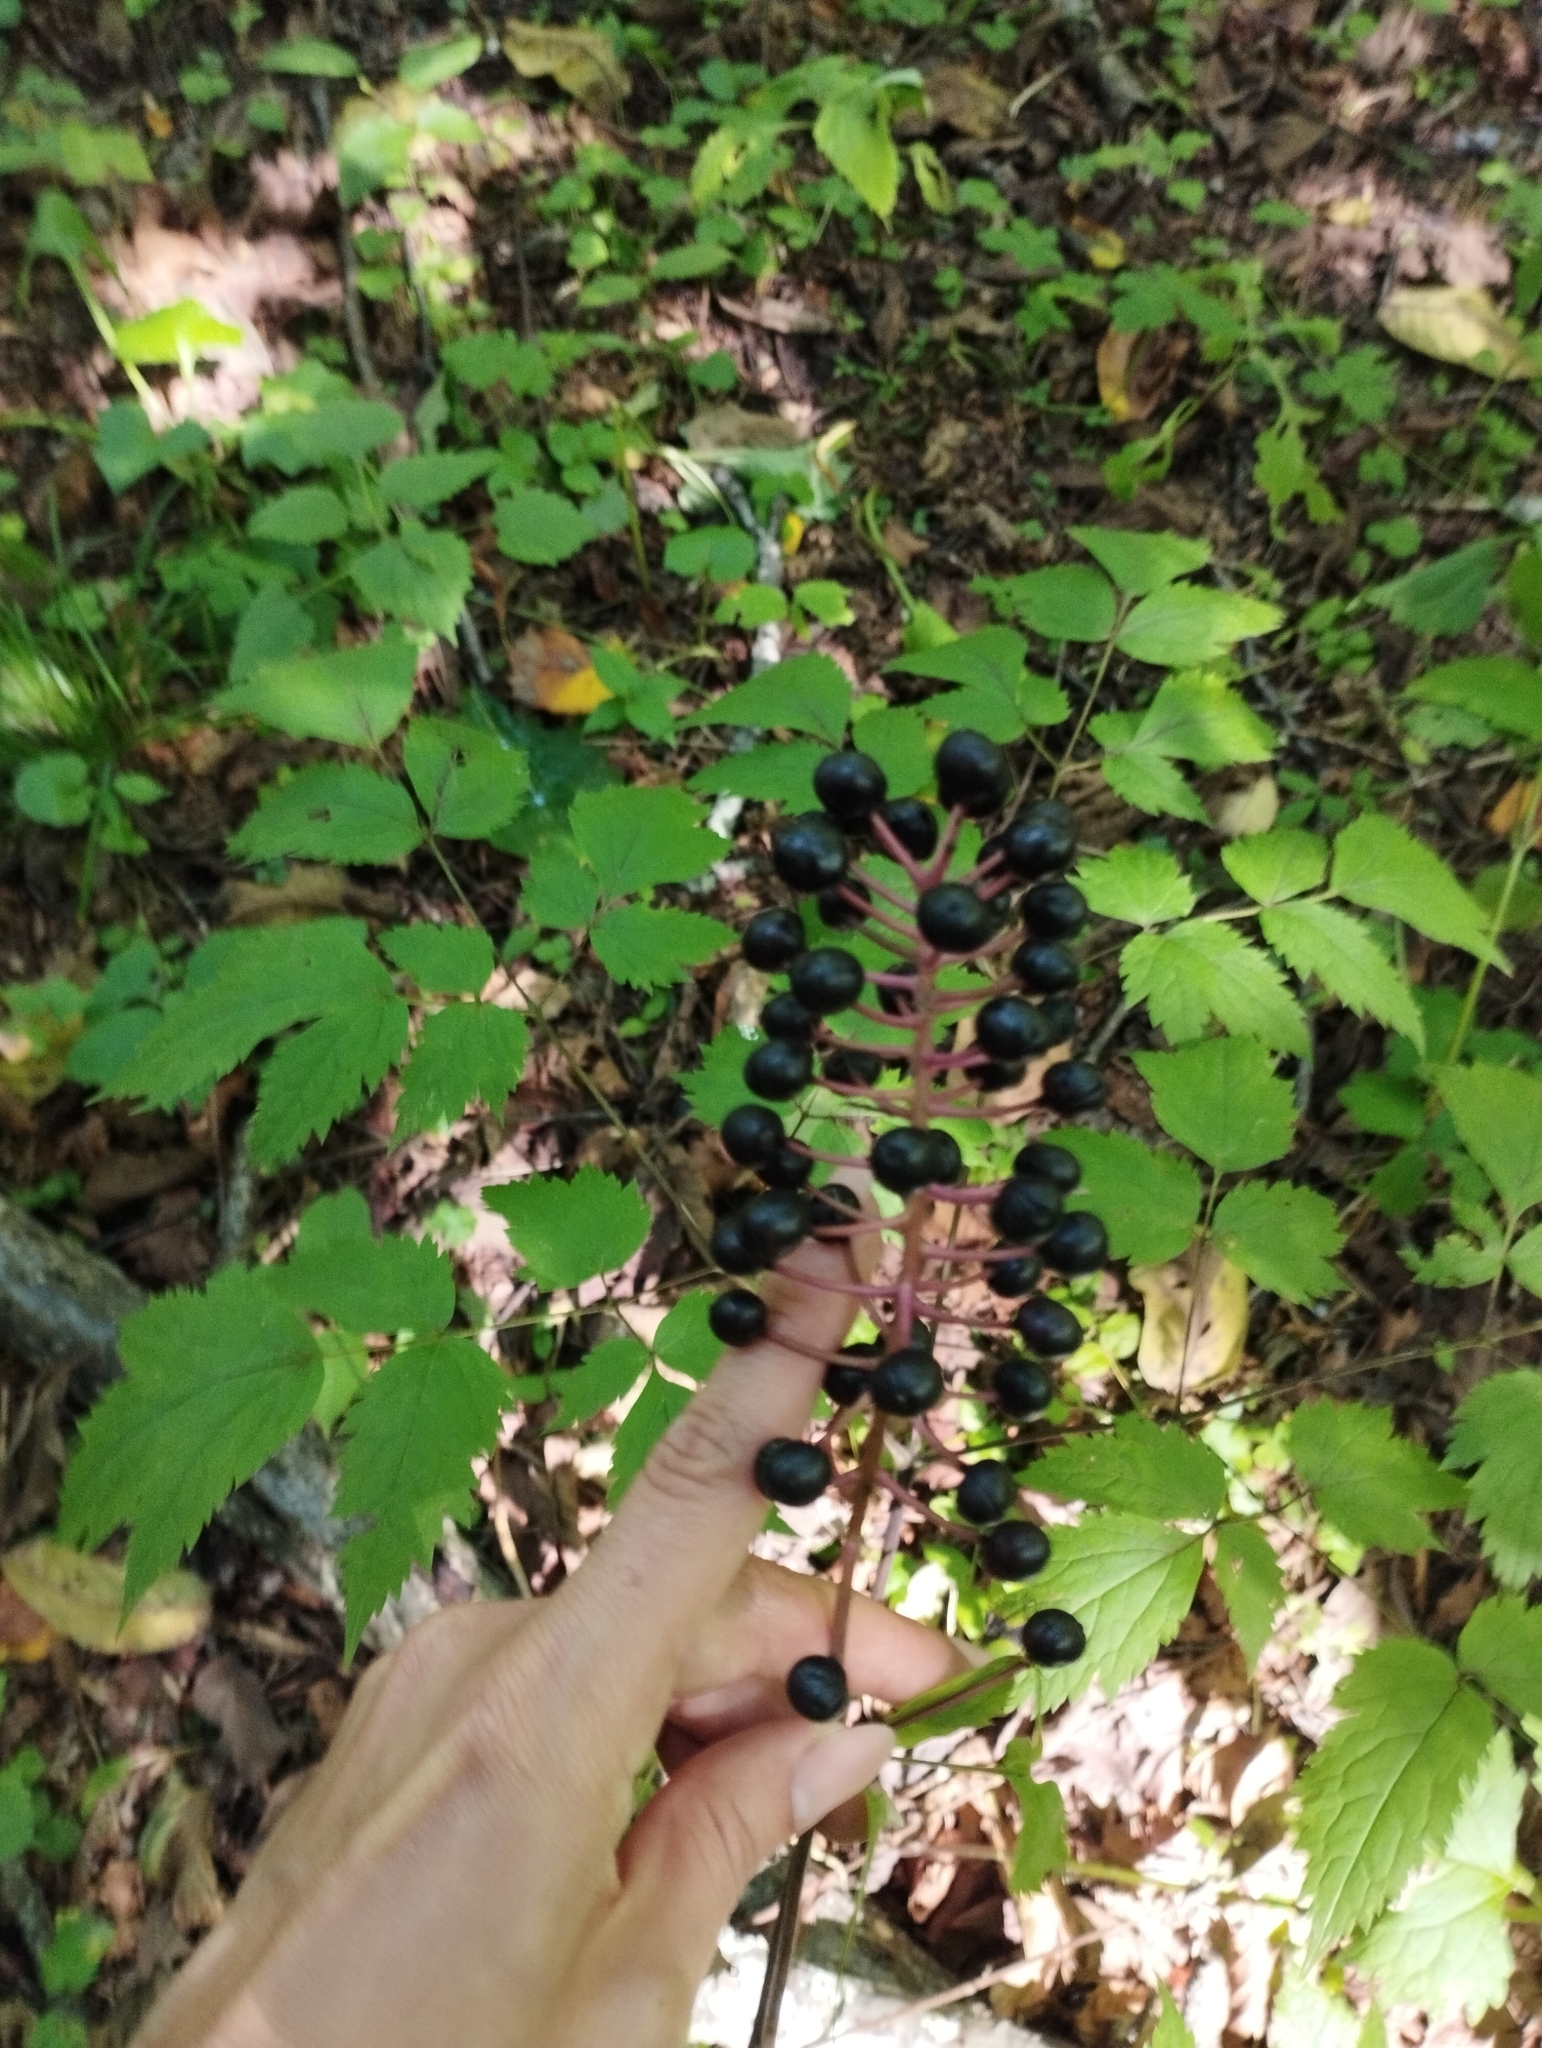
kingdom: Plantae
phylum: Tracheophyta
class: Magnoliopsida
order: Ranunculales
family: Ranunculaceae
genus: Actaea
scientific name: Actaea asiatica
